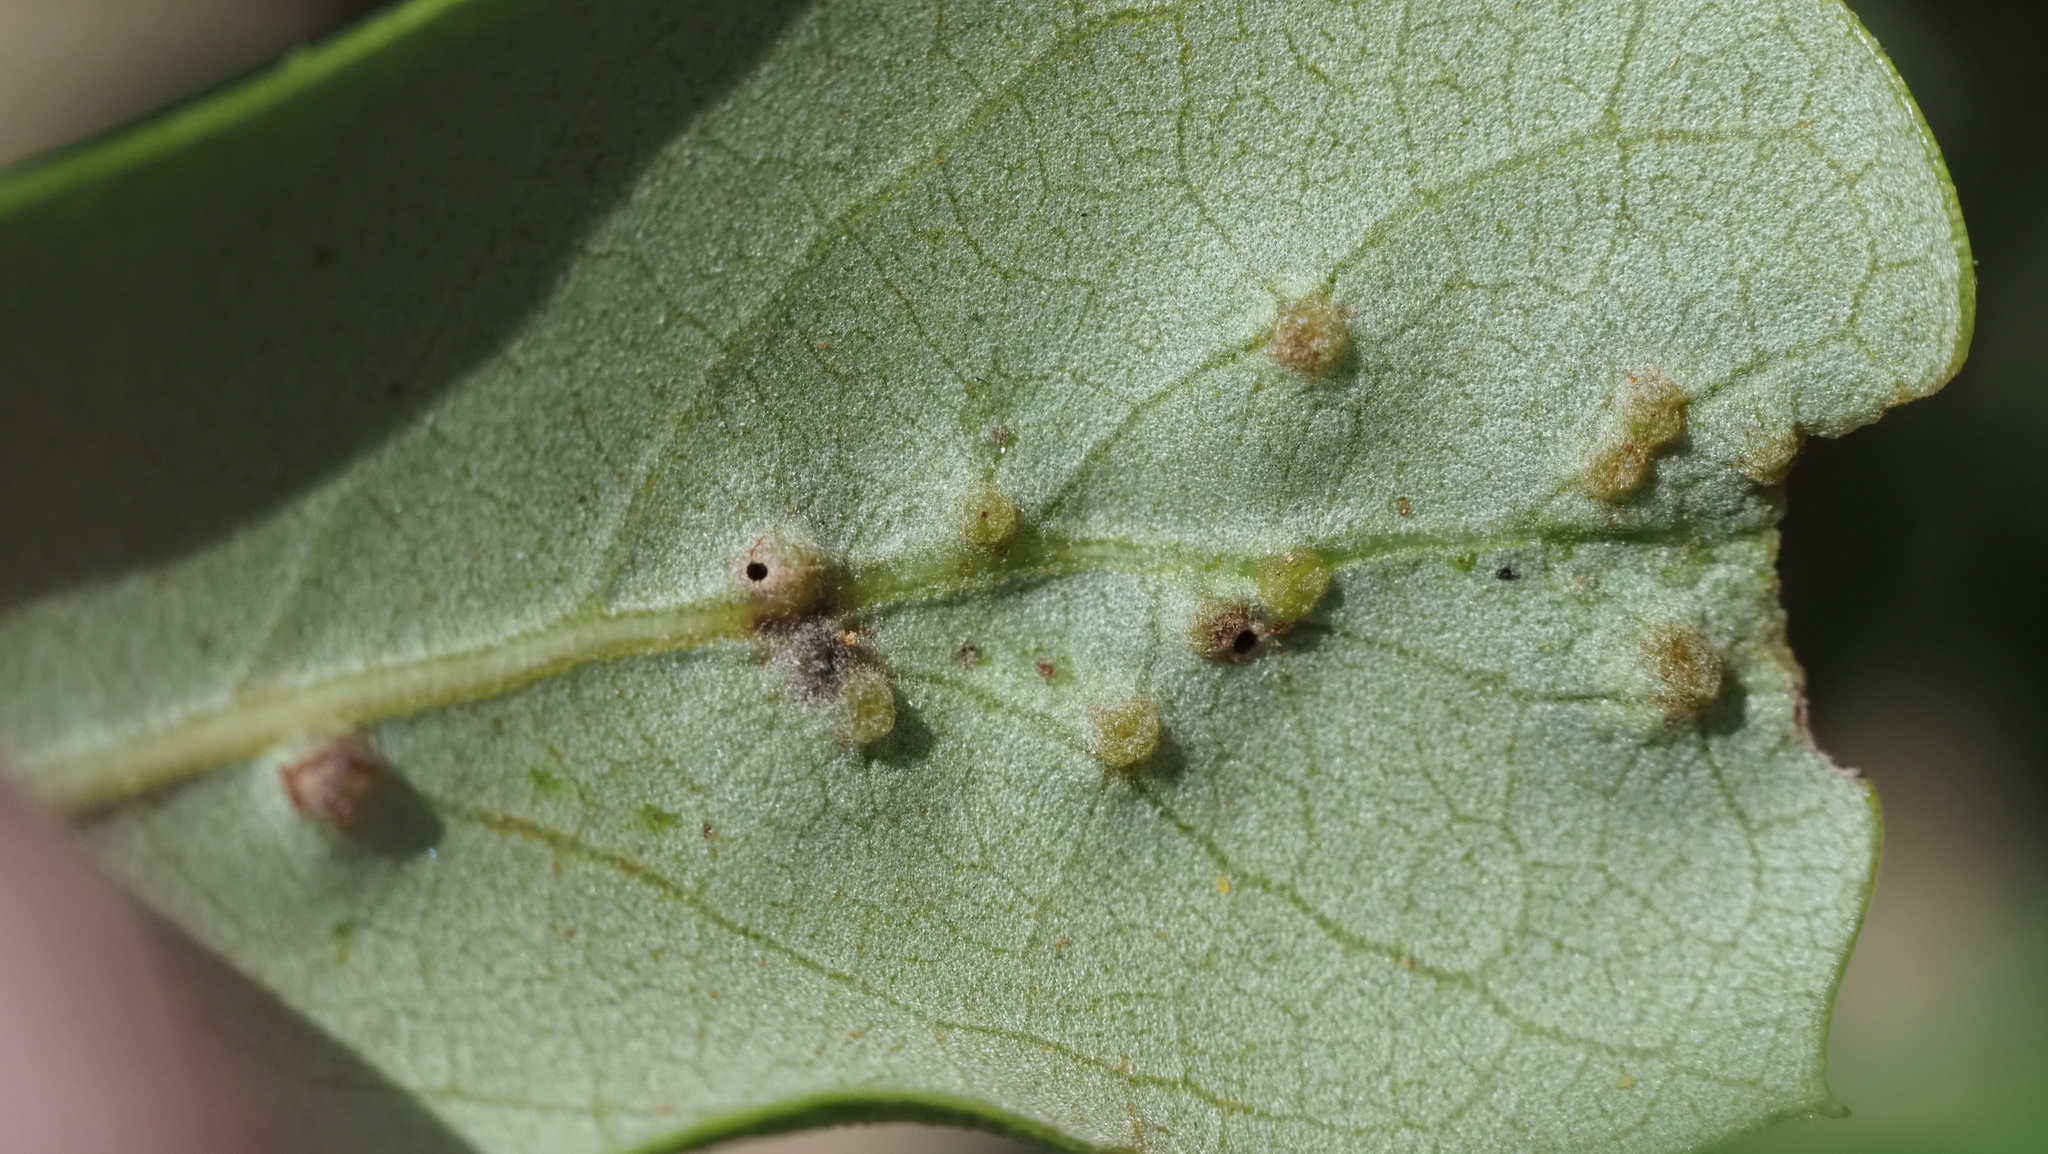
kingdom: Animalia
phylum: Arthropoda
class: Insecta
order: Hymenoptera
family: Cynipidae
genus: Neuroterus
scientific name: Neuroterus
